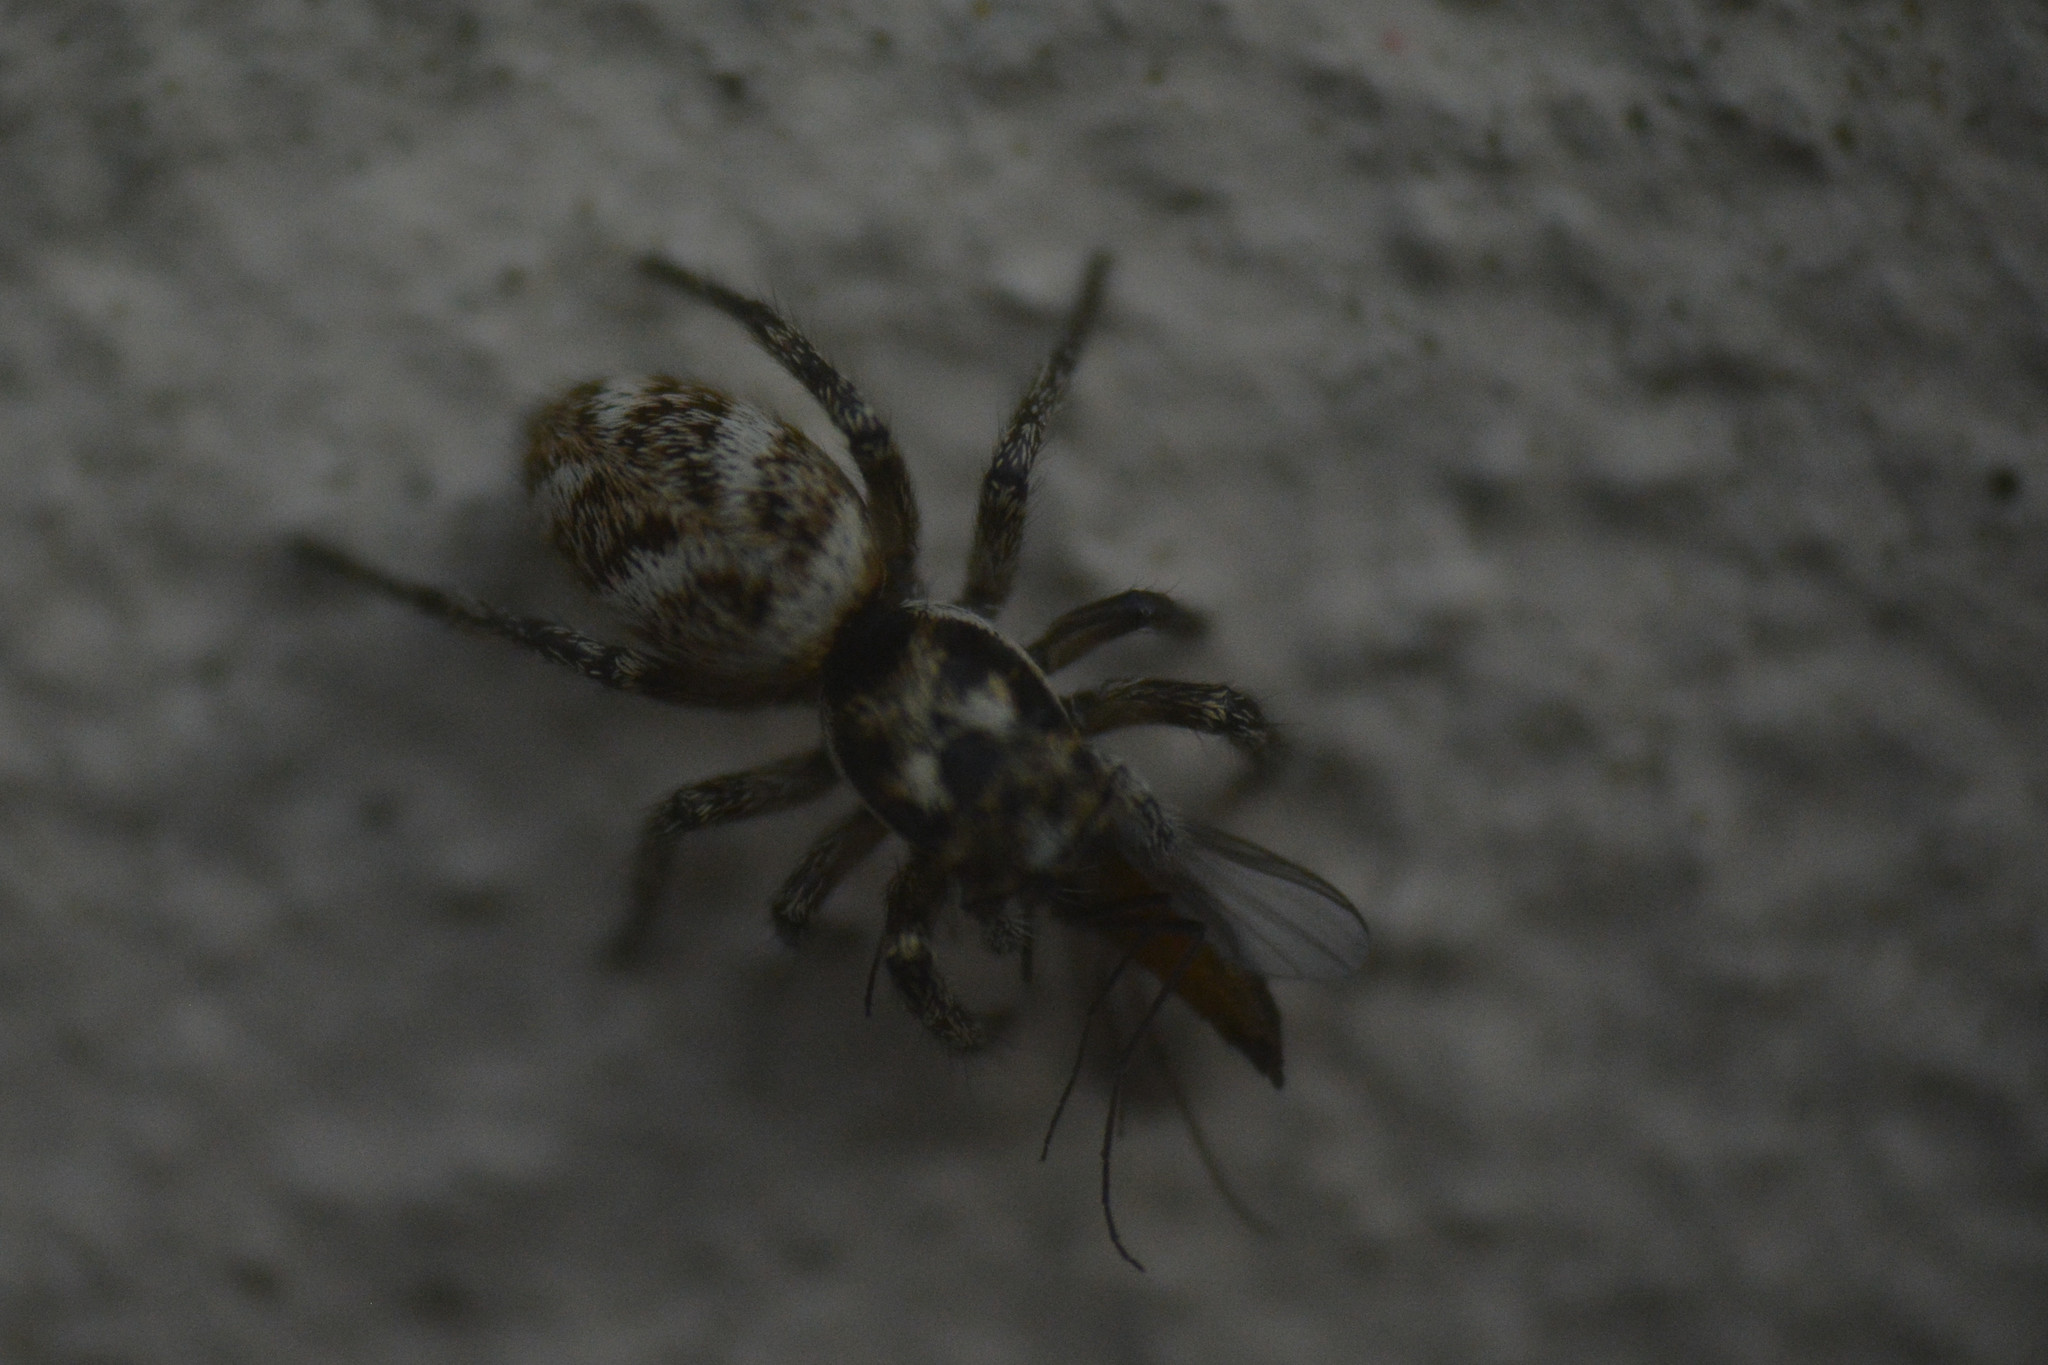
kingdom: Animalia
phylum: Arthropoda
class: Arachnida
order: Araneae
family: Salticidae
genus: Salticus
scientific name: Salticus scenicus
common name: Zebra jumper
